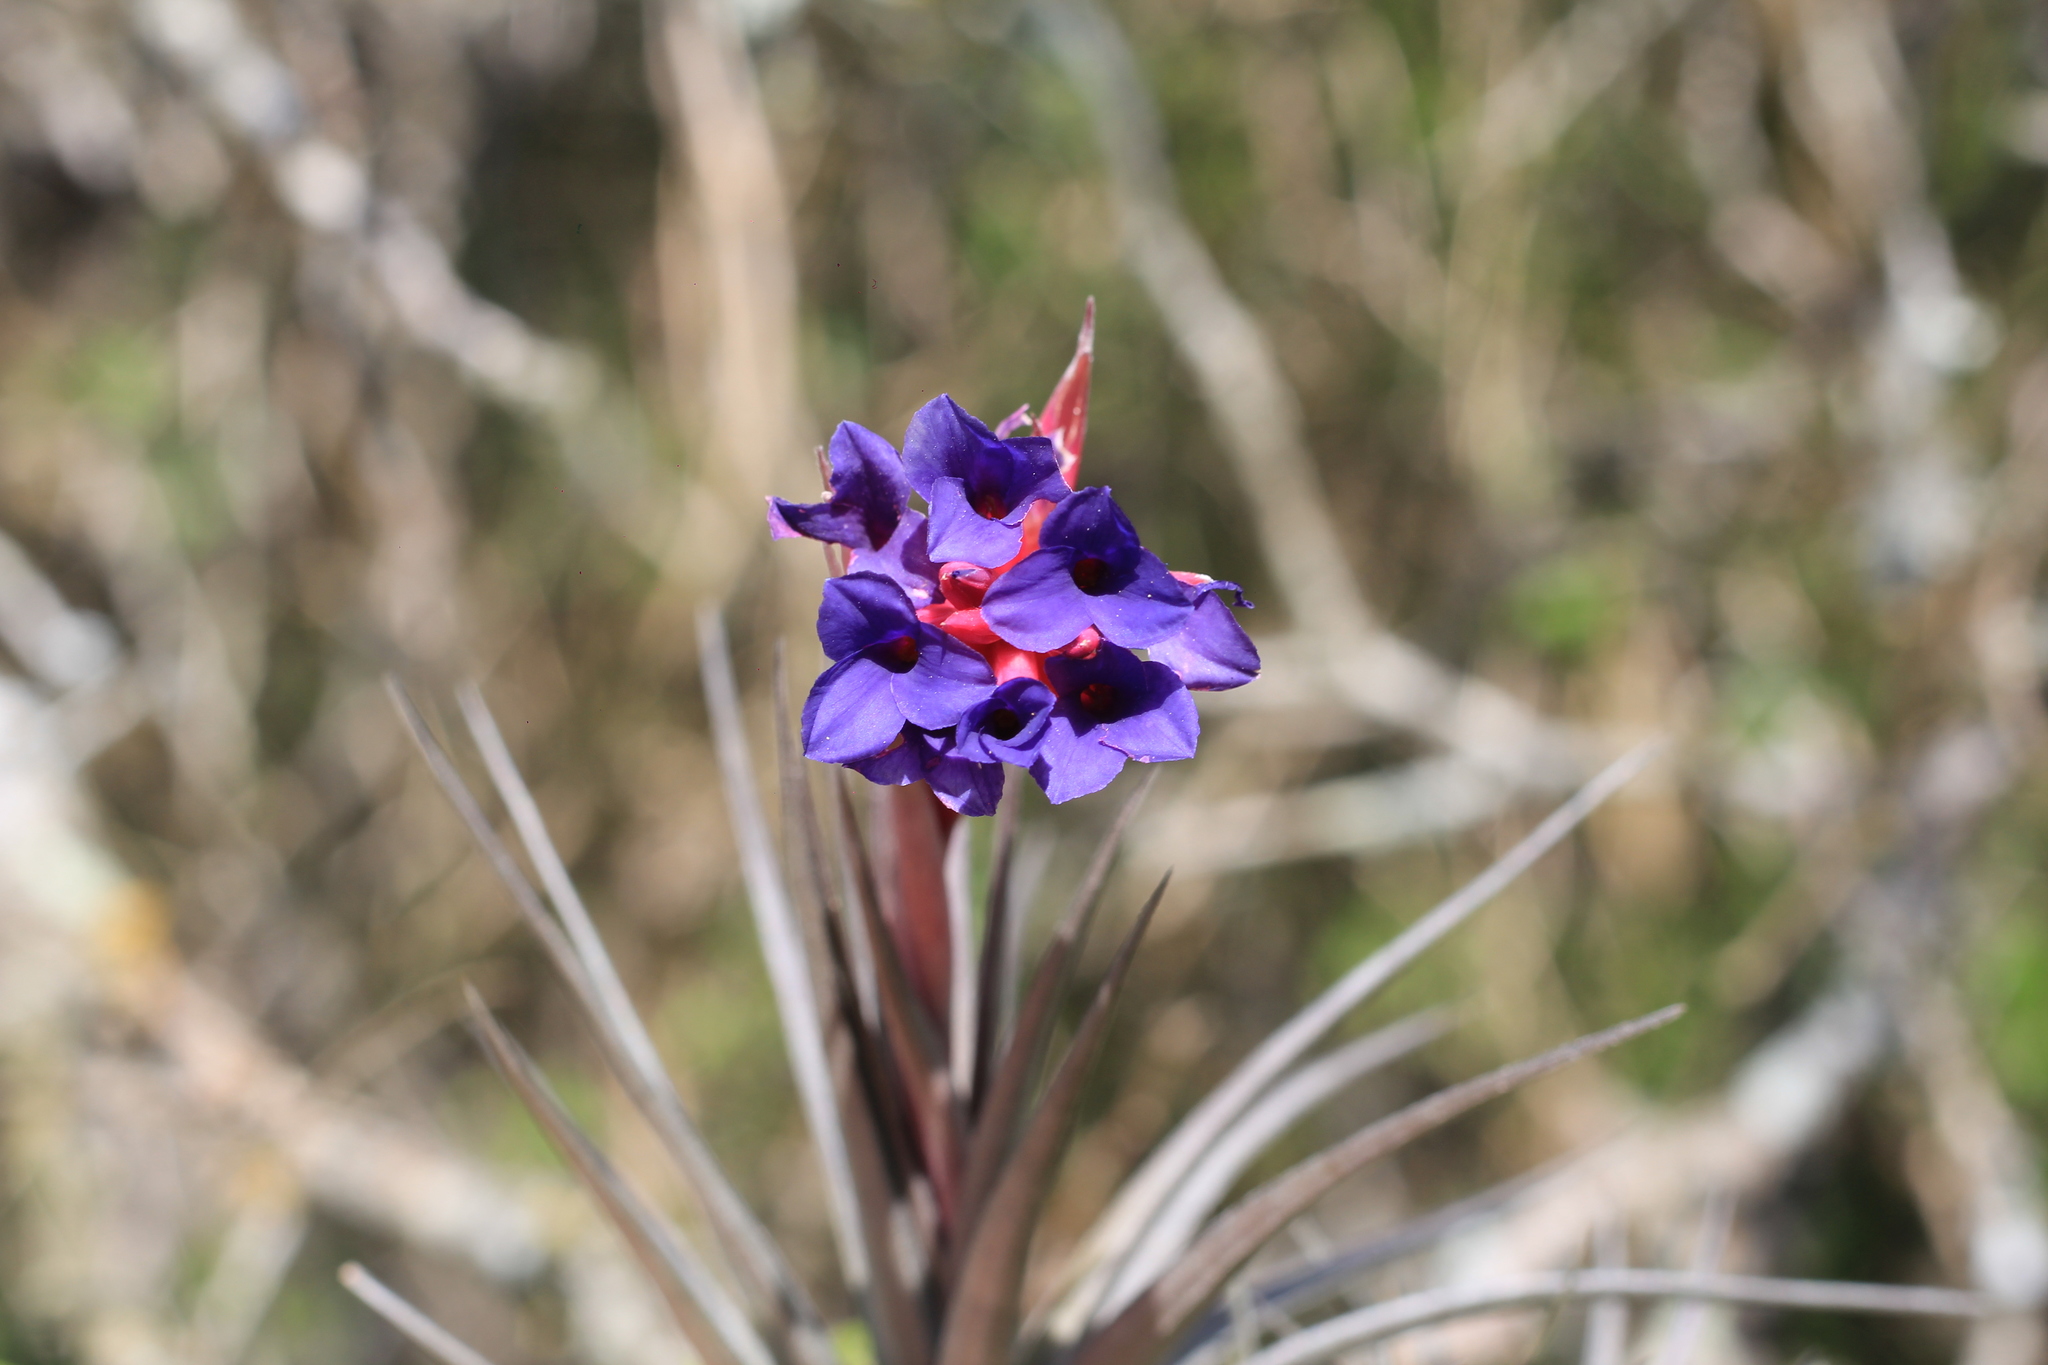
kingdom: Plantae
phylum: Tracheophyta
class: Liliopsida
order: Poales
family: Bromeliaceae
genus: Tillandsia
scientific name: Tillandsia aeranthos
